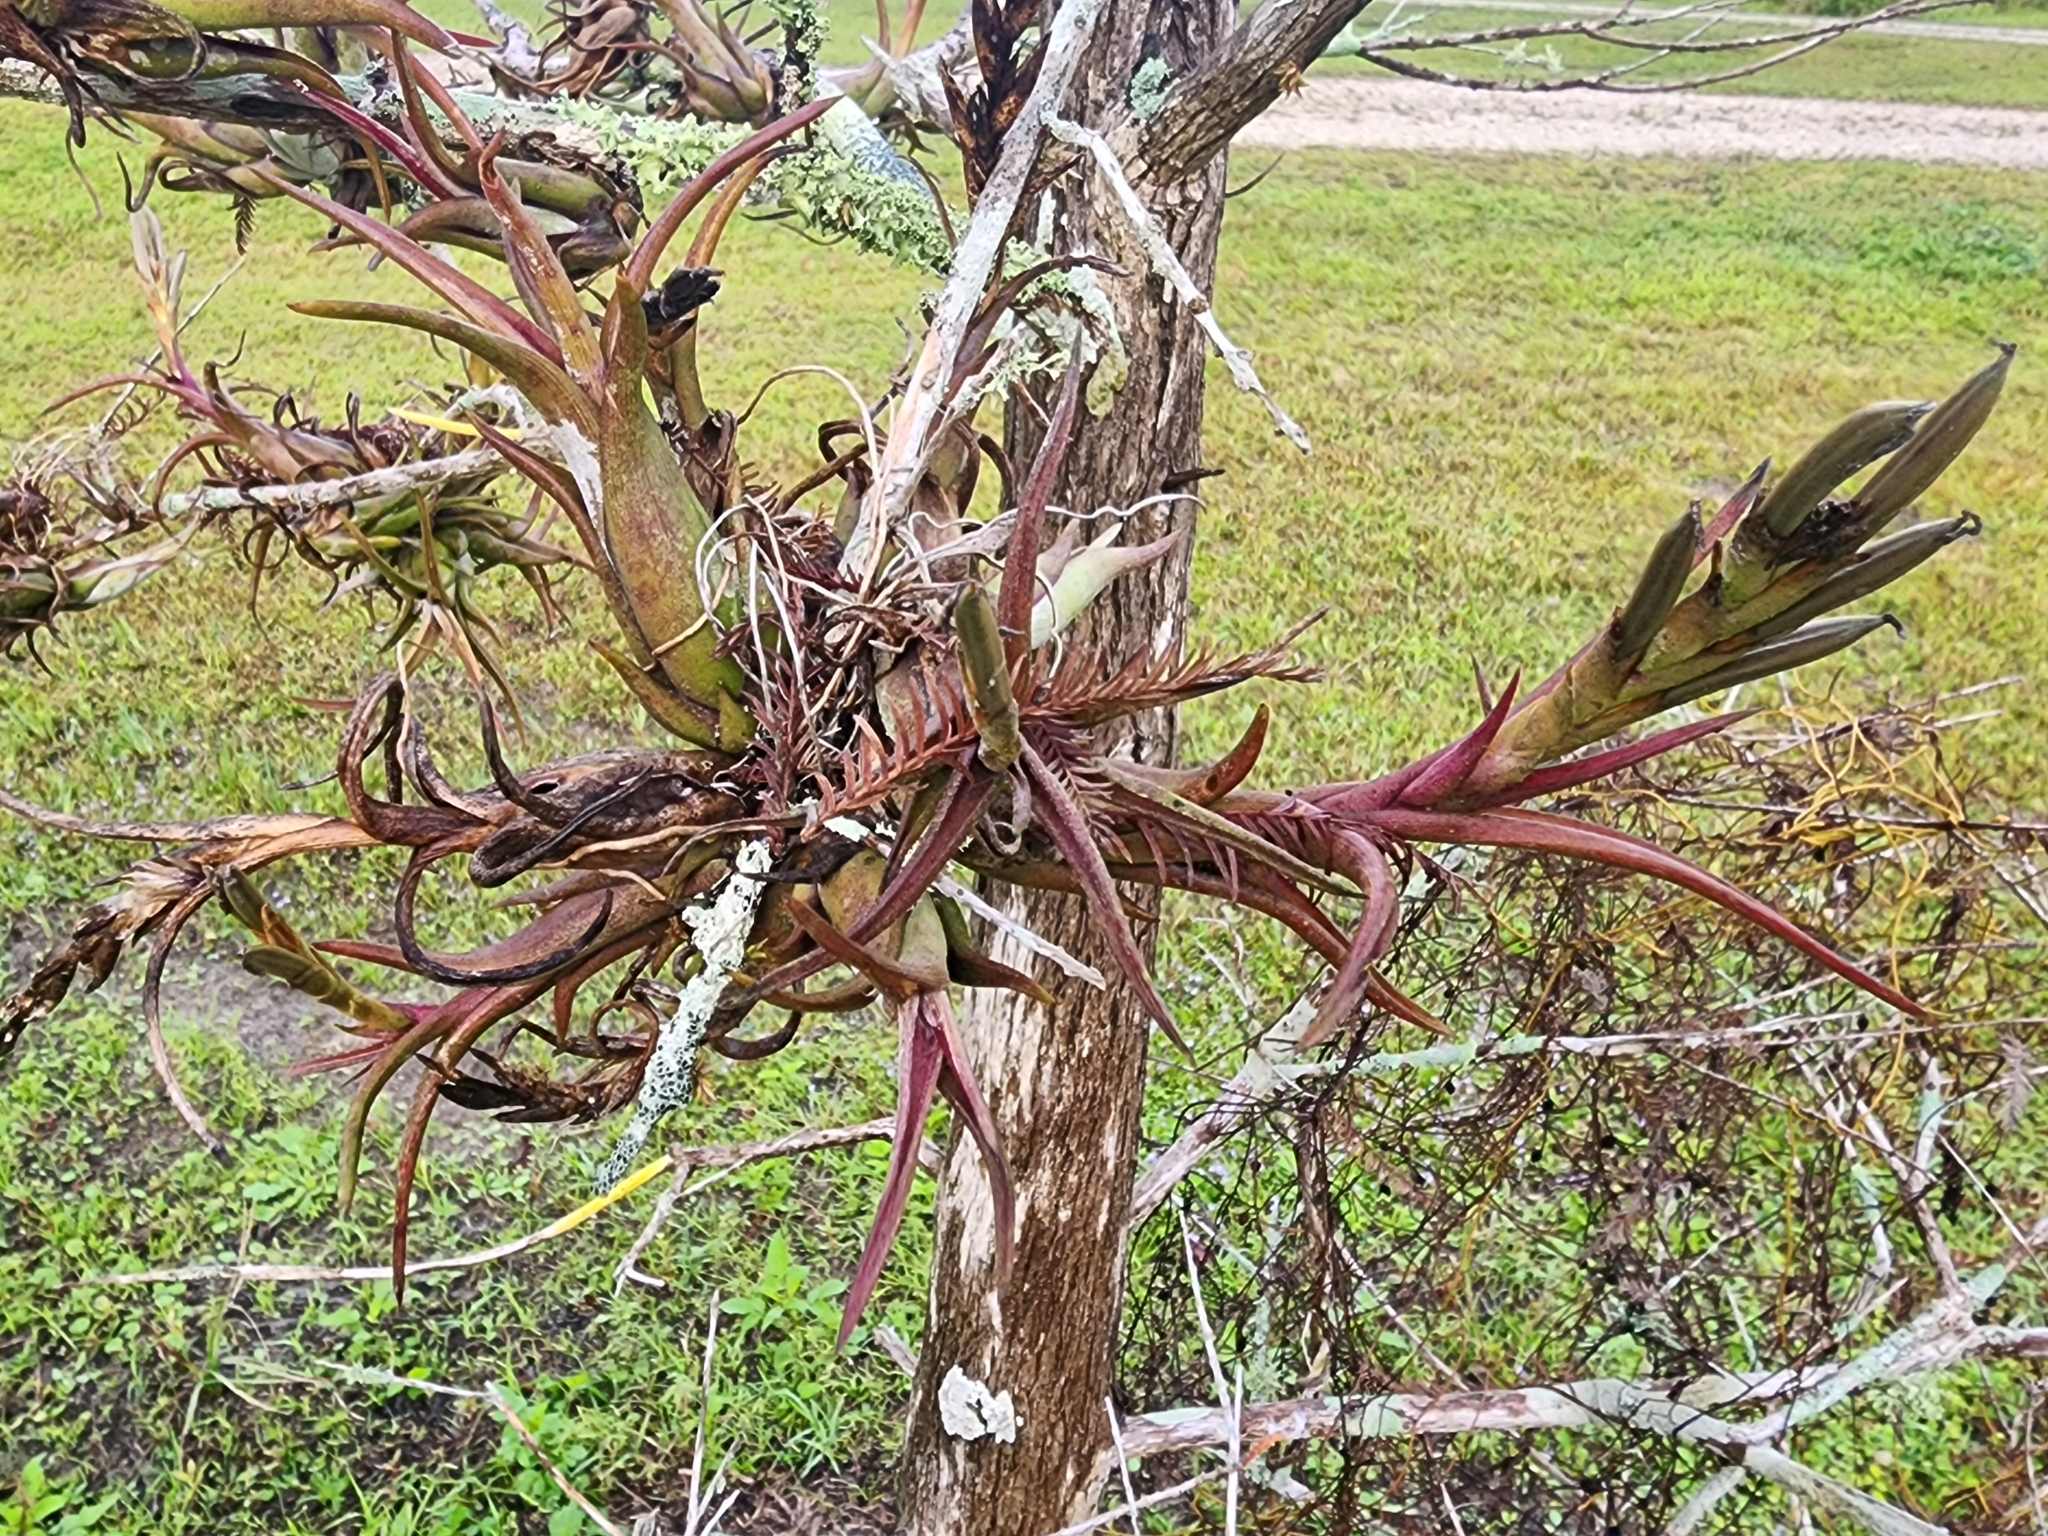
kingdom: Plantae
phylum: Tracheophyta
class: Liliopsida
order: Poales
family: Bromeliaceae
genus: Tillandsia
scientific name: Tillandsia paucifolia
